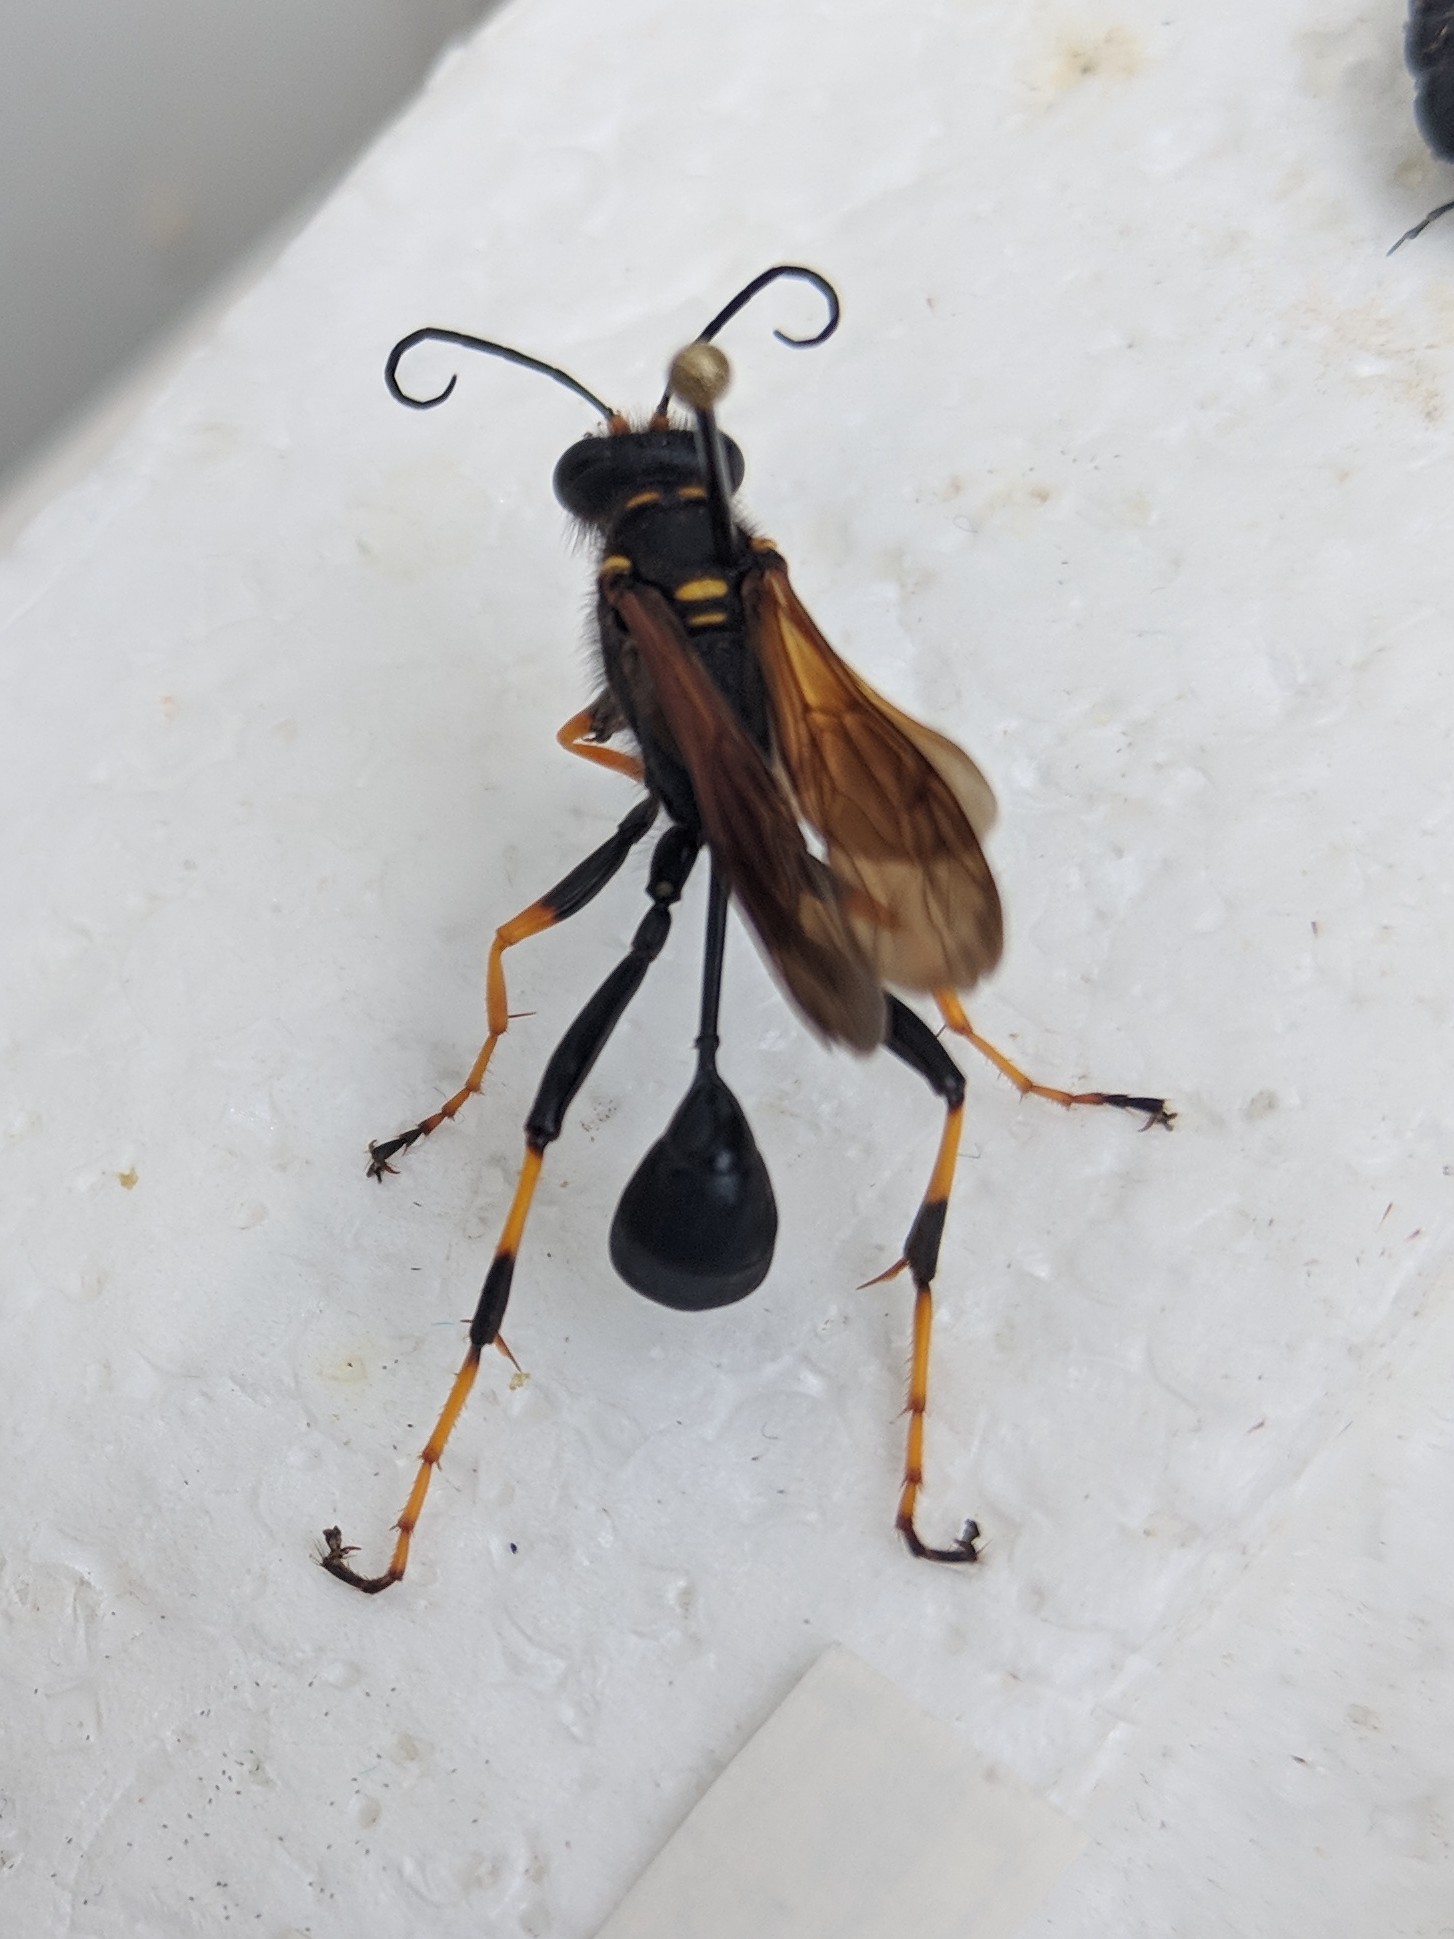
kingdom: Animalia
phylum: Arthropoda
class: Insecta
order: Hymenoptera
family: Sphecidae
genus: Sceliphron
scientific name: Sceliphron caementarium
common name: Mud dauber
